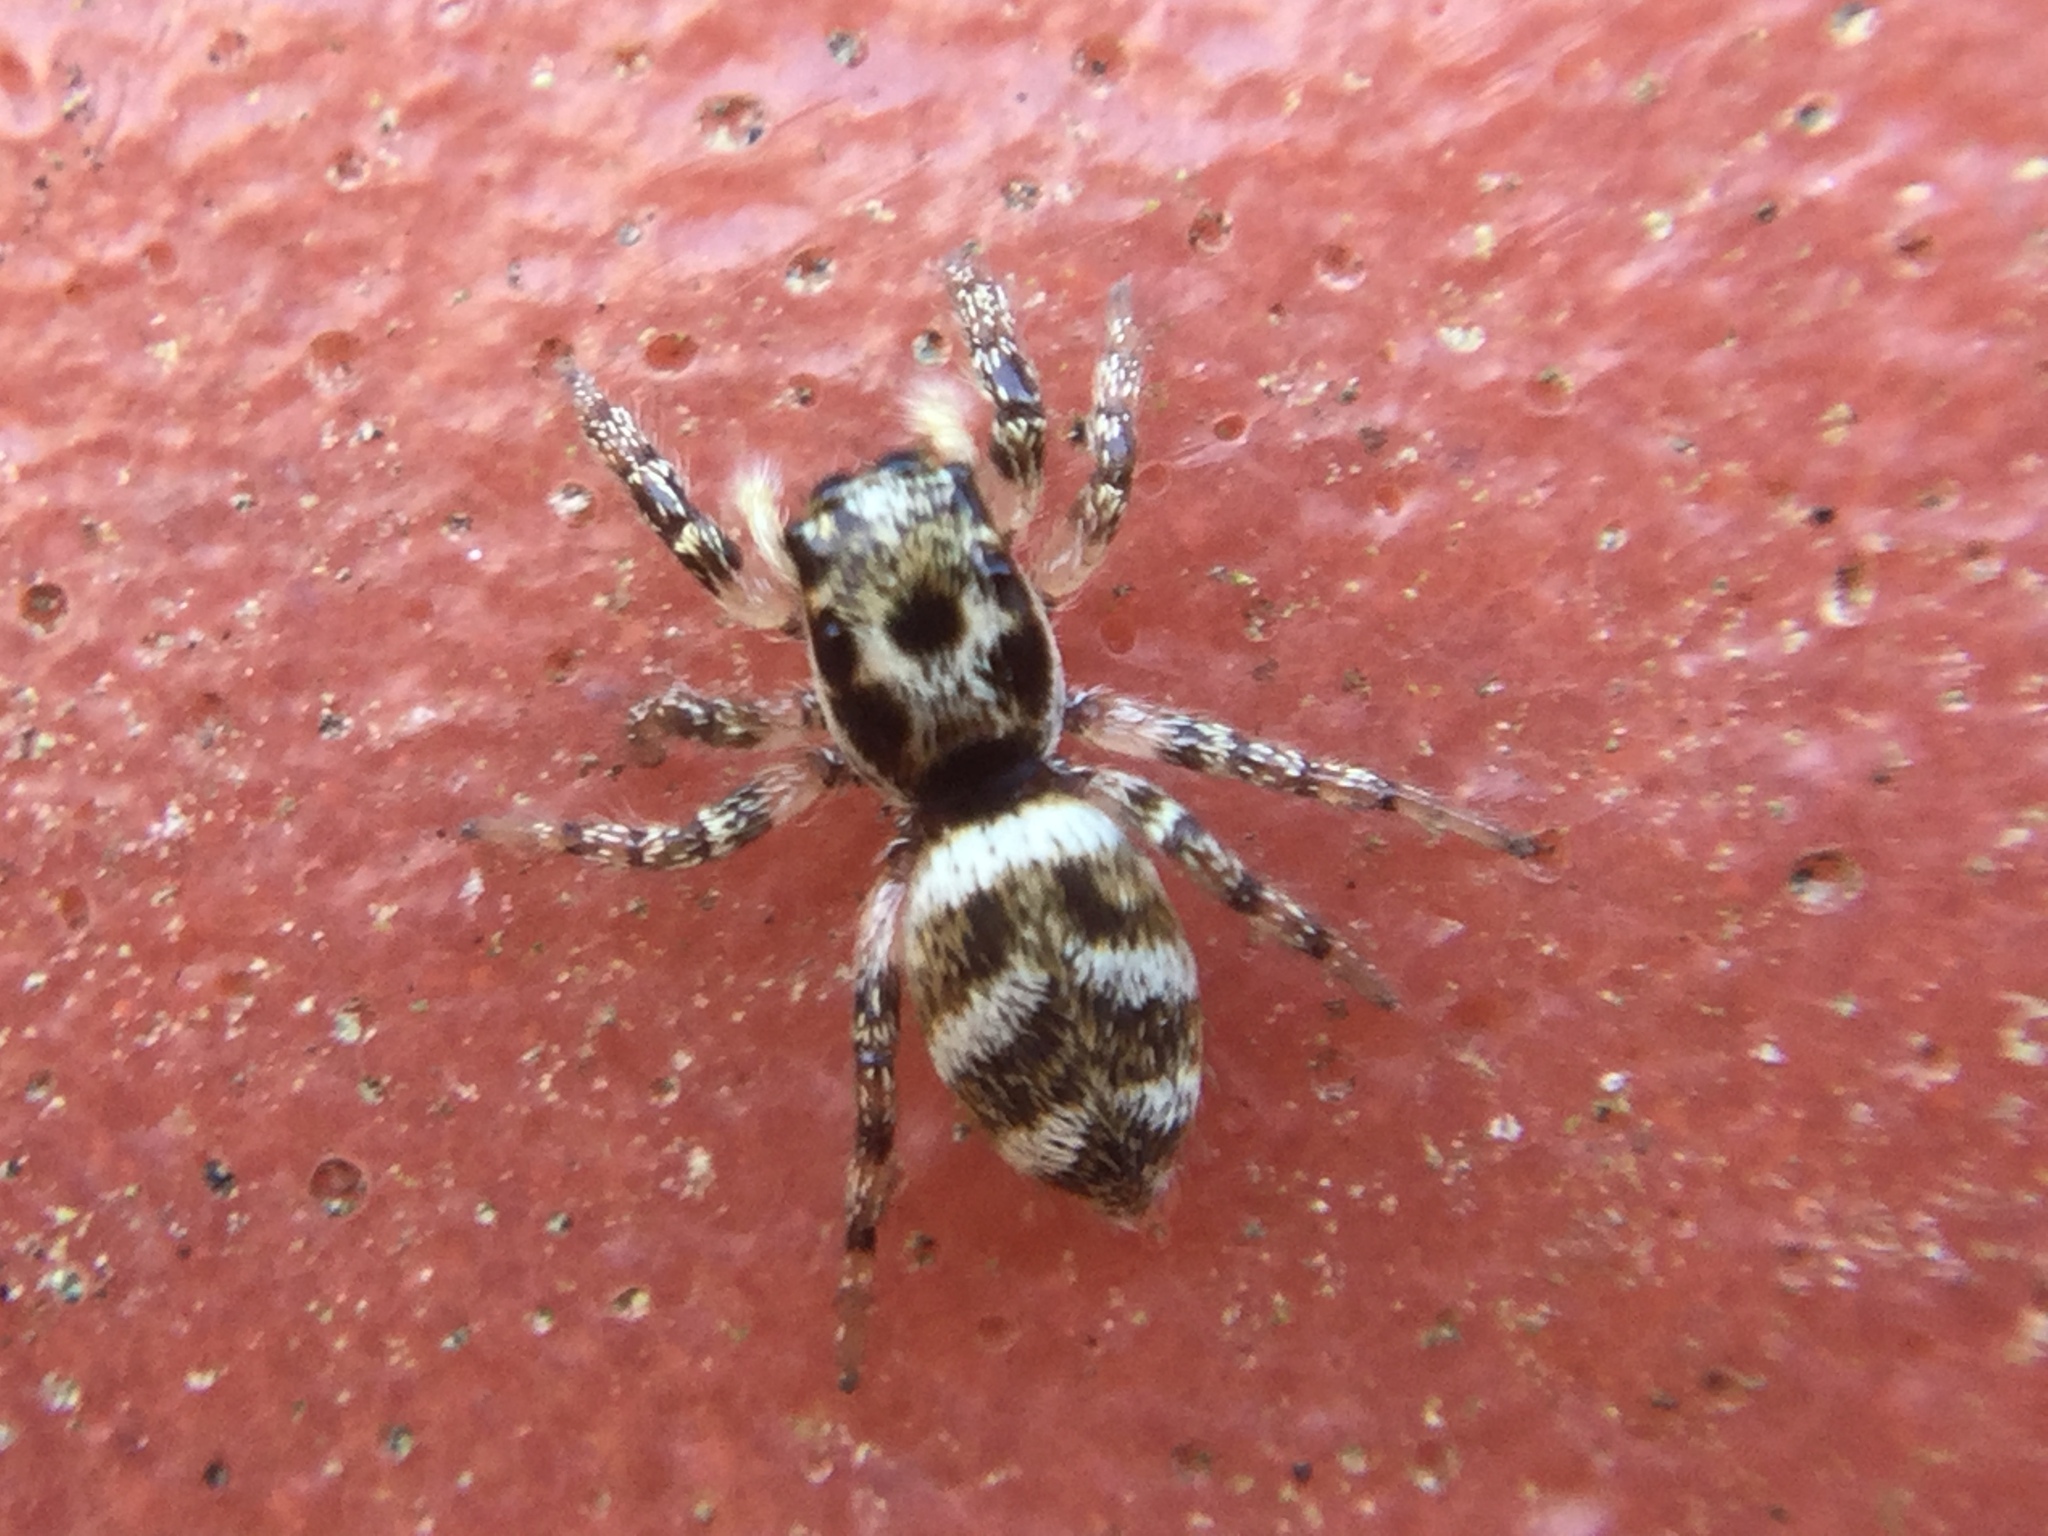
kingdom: Animalia
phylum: Arthropoda
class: Arachnida
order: Araneae
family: Salticidae
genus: Salticus
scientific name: Salticus scenicus
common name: Zebra jumper
